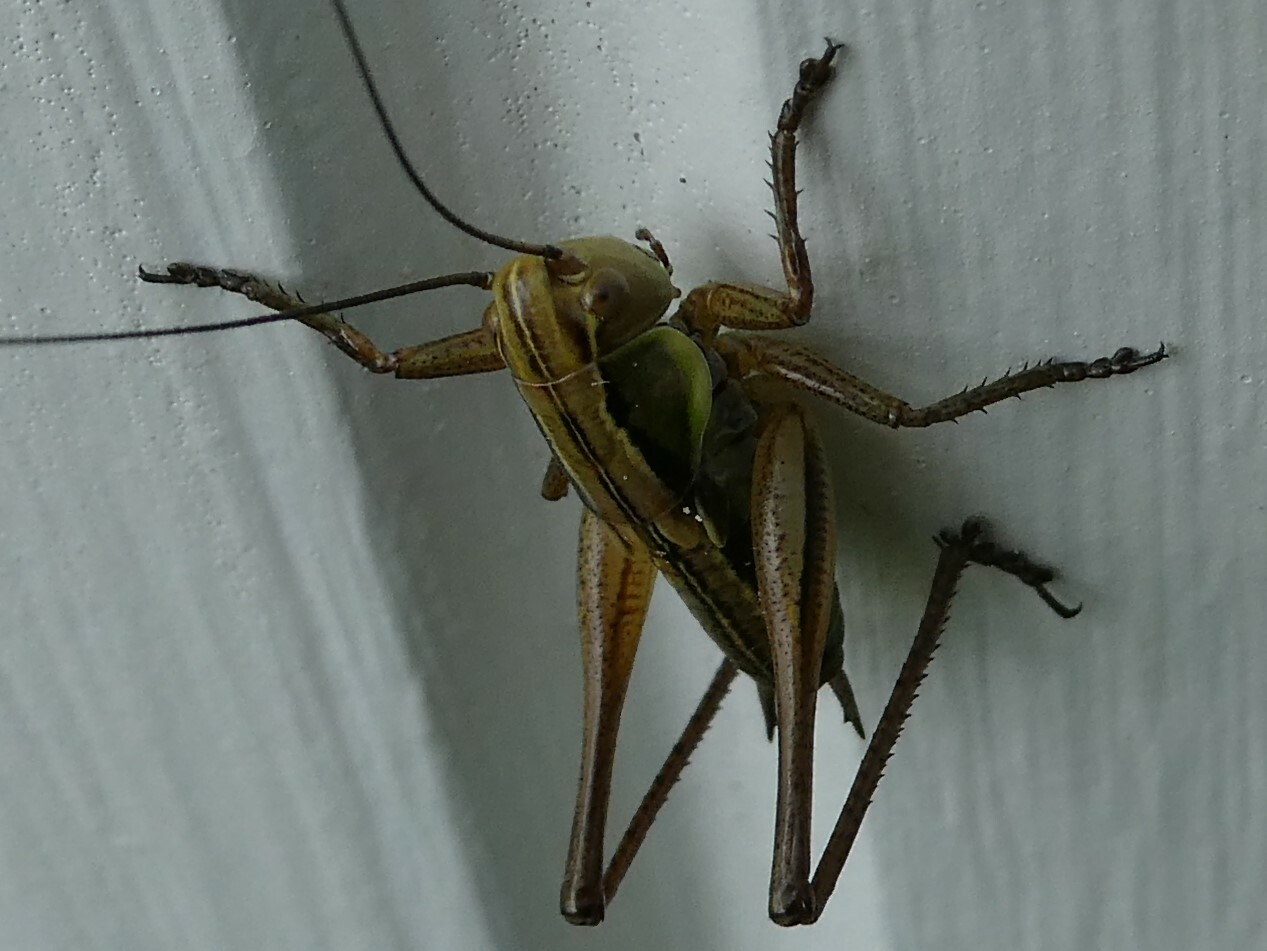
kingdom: Animalia
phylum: Arthropoda
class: Insecta
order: Orthoptera
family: Tettigoniidae
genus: Roeseliana
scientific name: Roeseliana roeselii
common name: Roesel's bush cricket
